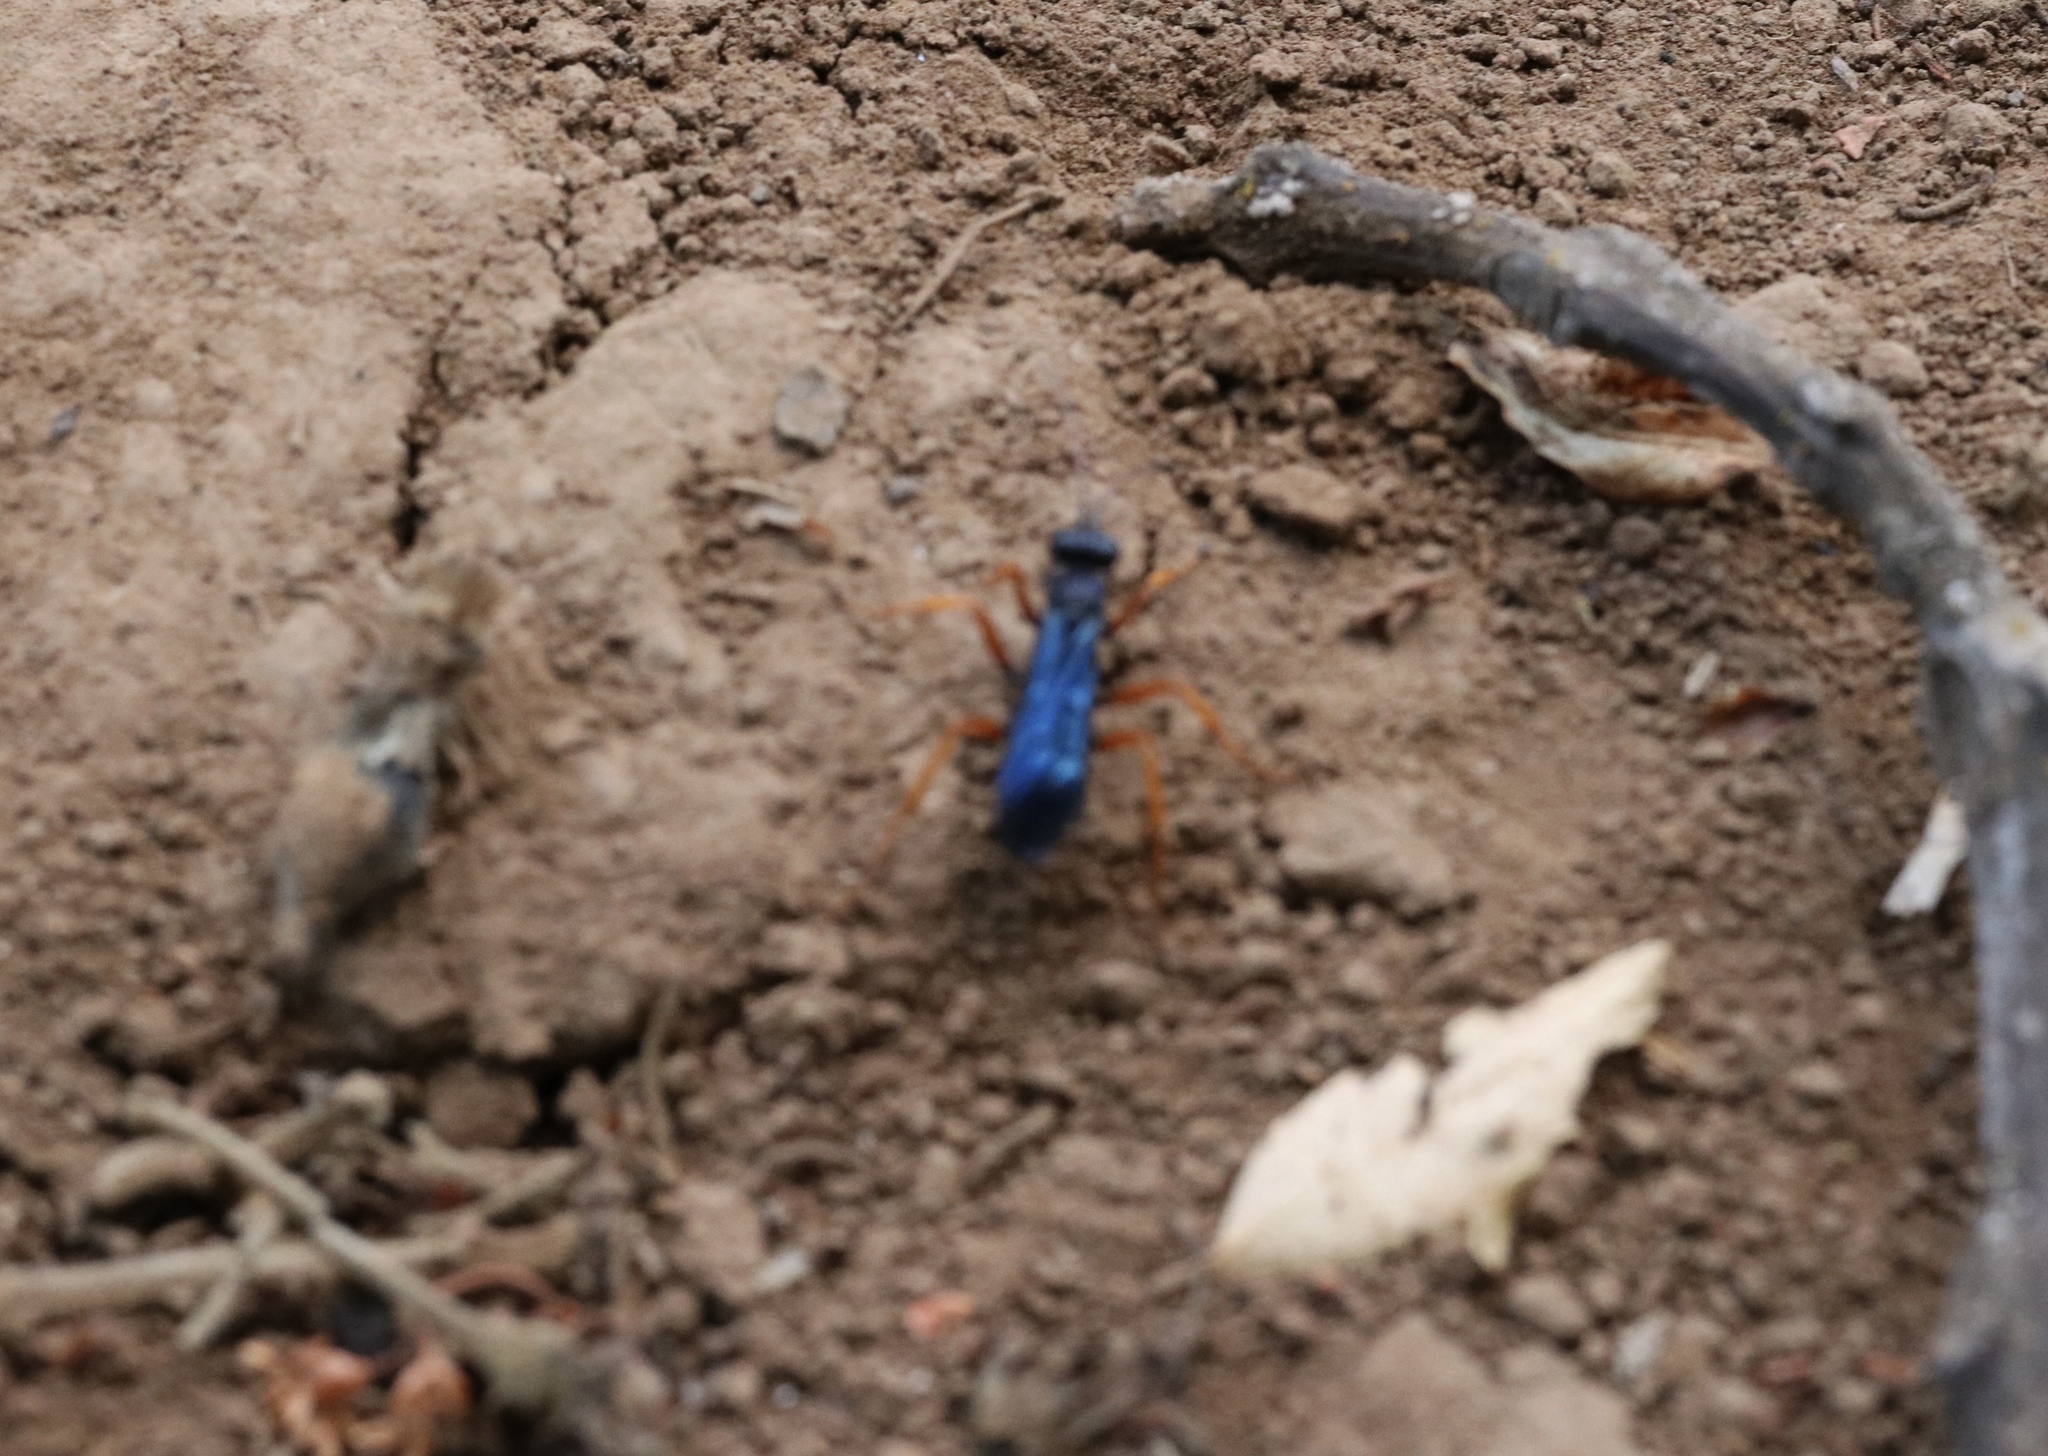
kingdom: Animalia
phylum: Arthropoda
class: Insecta
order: Hymenoptera
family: Pompilidae
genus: Sphictostethus
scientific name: Sphictostethus xanthopus
